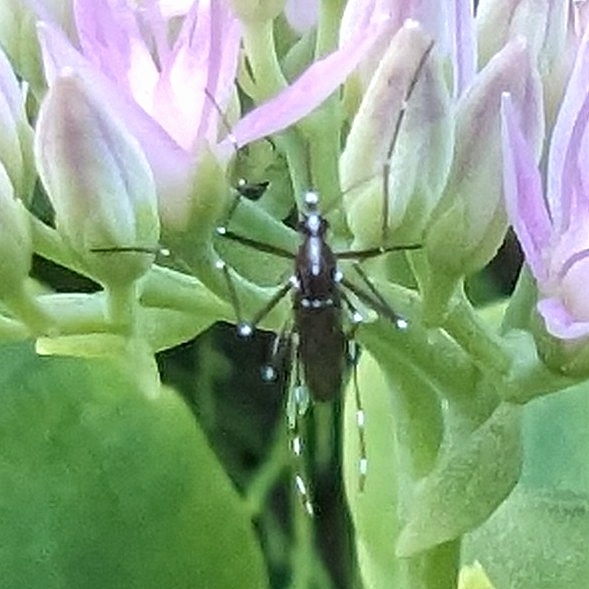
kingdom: Animalia
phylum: Arthropoda
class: Insecta
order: Diptera
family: Culicidae
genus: Aedes
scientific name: Aedes albopictus
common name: Tiger mosquito
